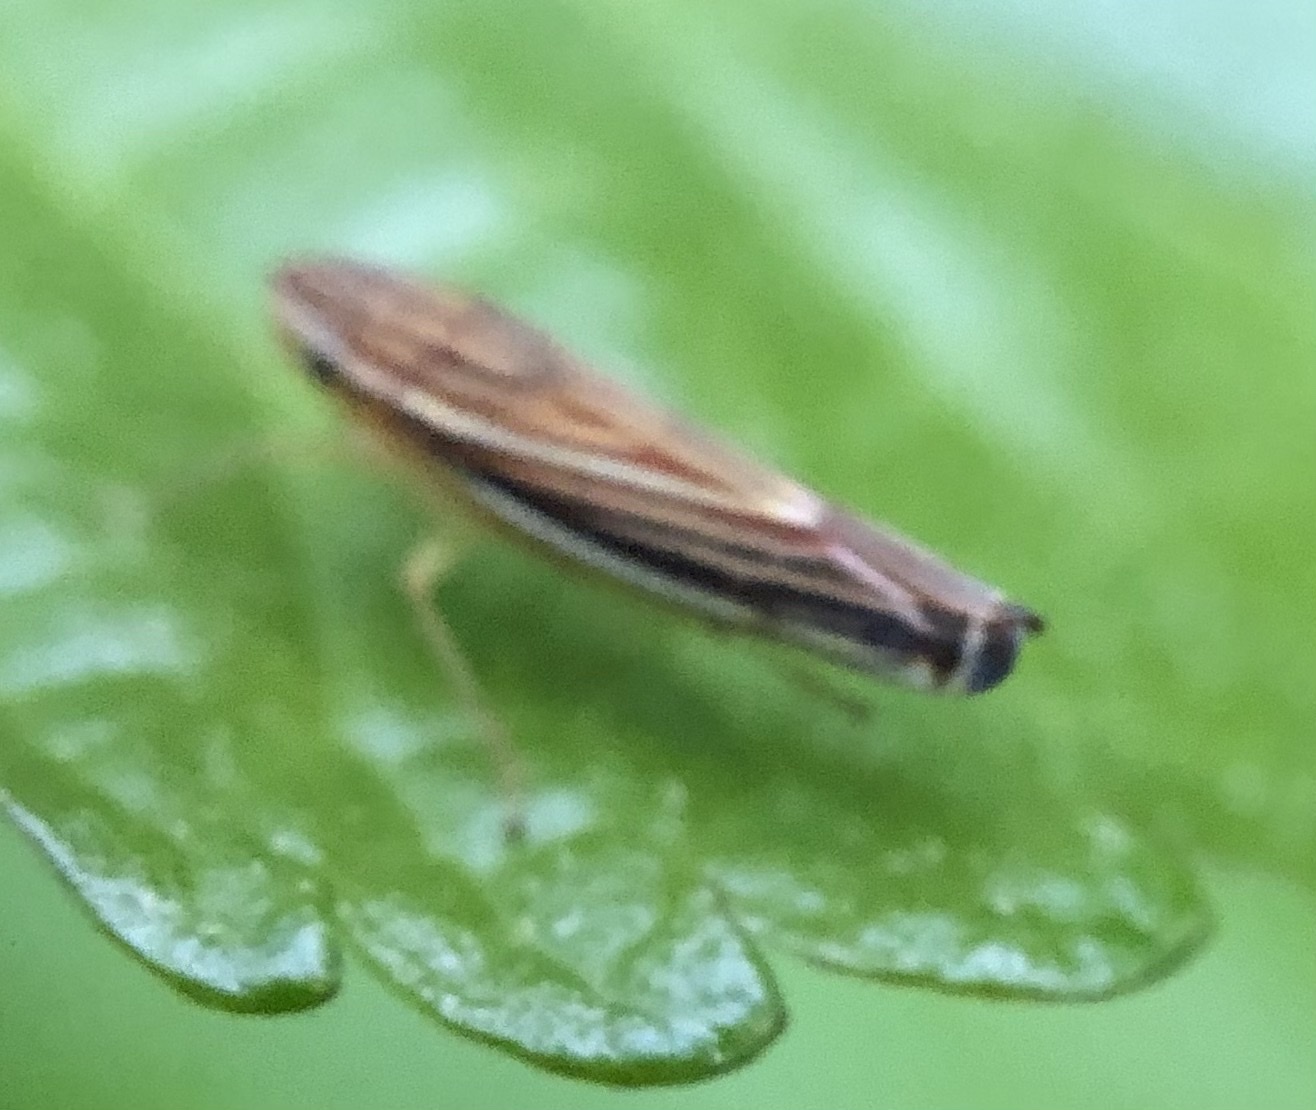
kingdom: Animalia
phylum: Arthropoda
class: Insecta
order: Hemiptera
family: Cicadellidae
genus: Sibovia
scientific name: Sibovia occatoria
